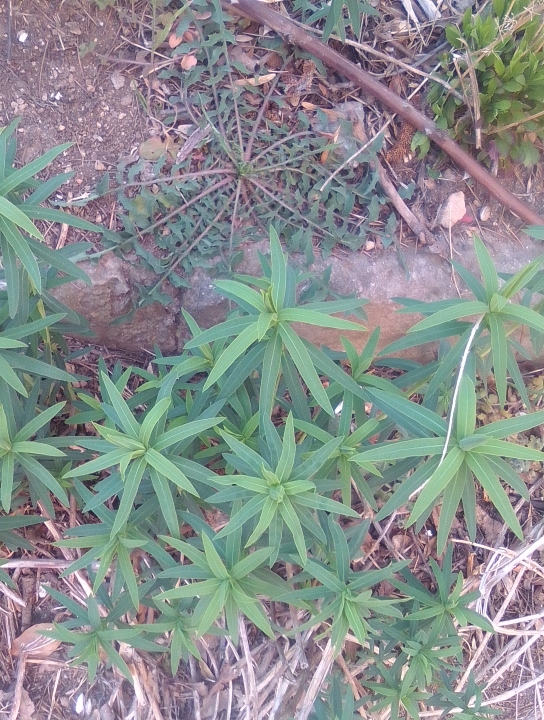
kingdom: Plantae
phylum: Tracheophyta
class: Magnoliopsida
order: Malpighiales
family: Euphorbiaceae
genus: Euphorbia
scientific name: Euphorbia virgata
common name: Leafy spurge
